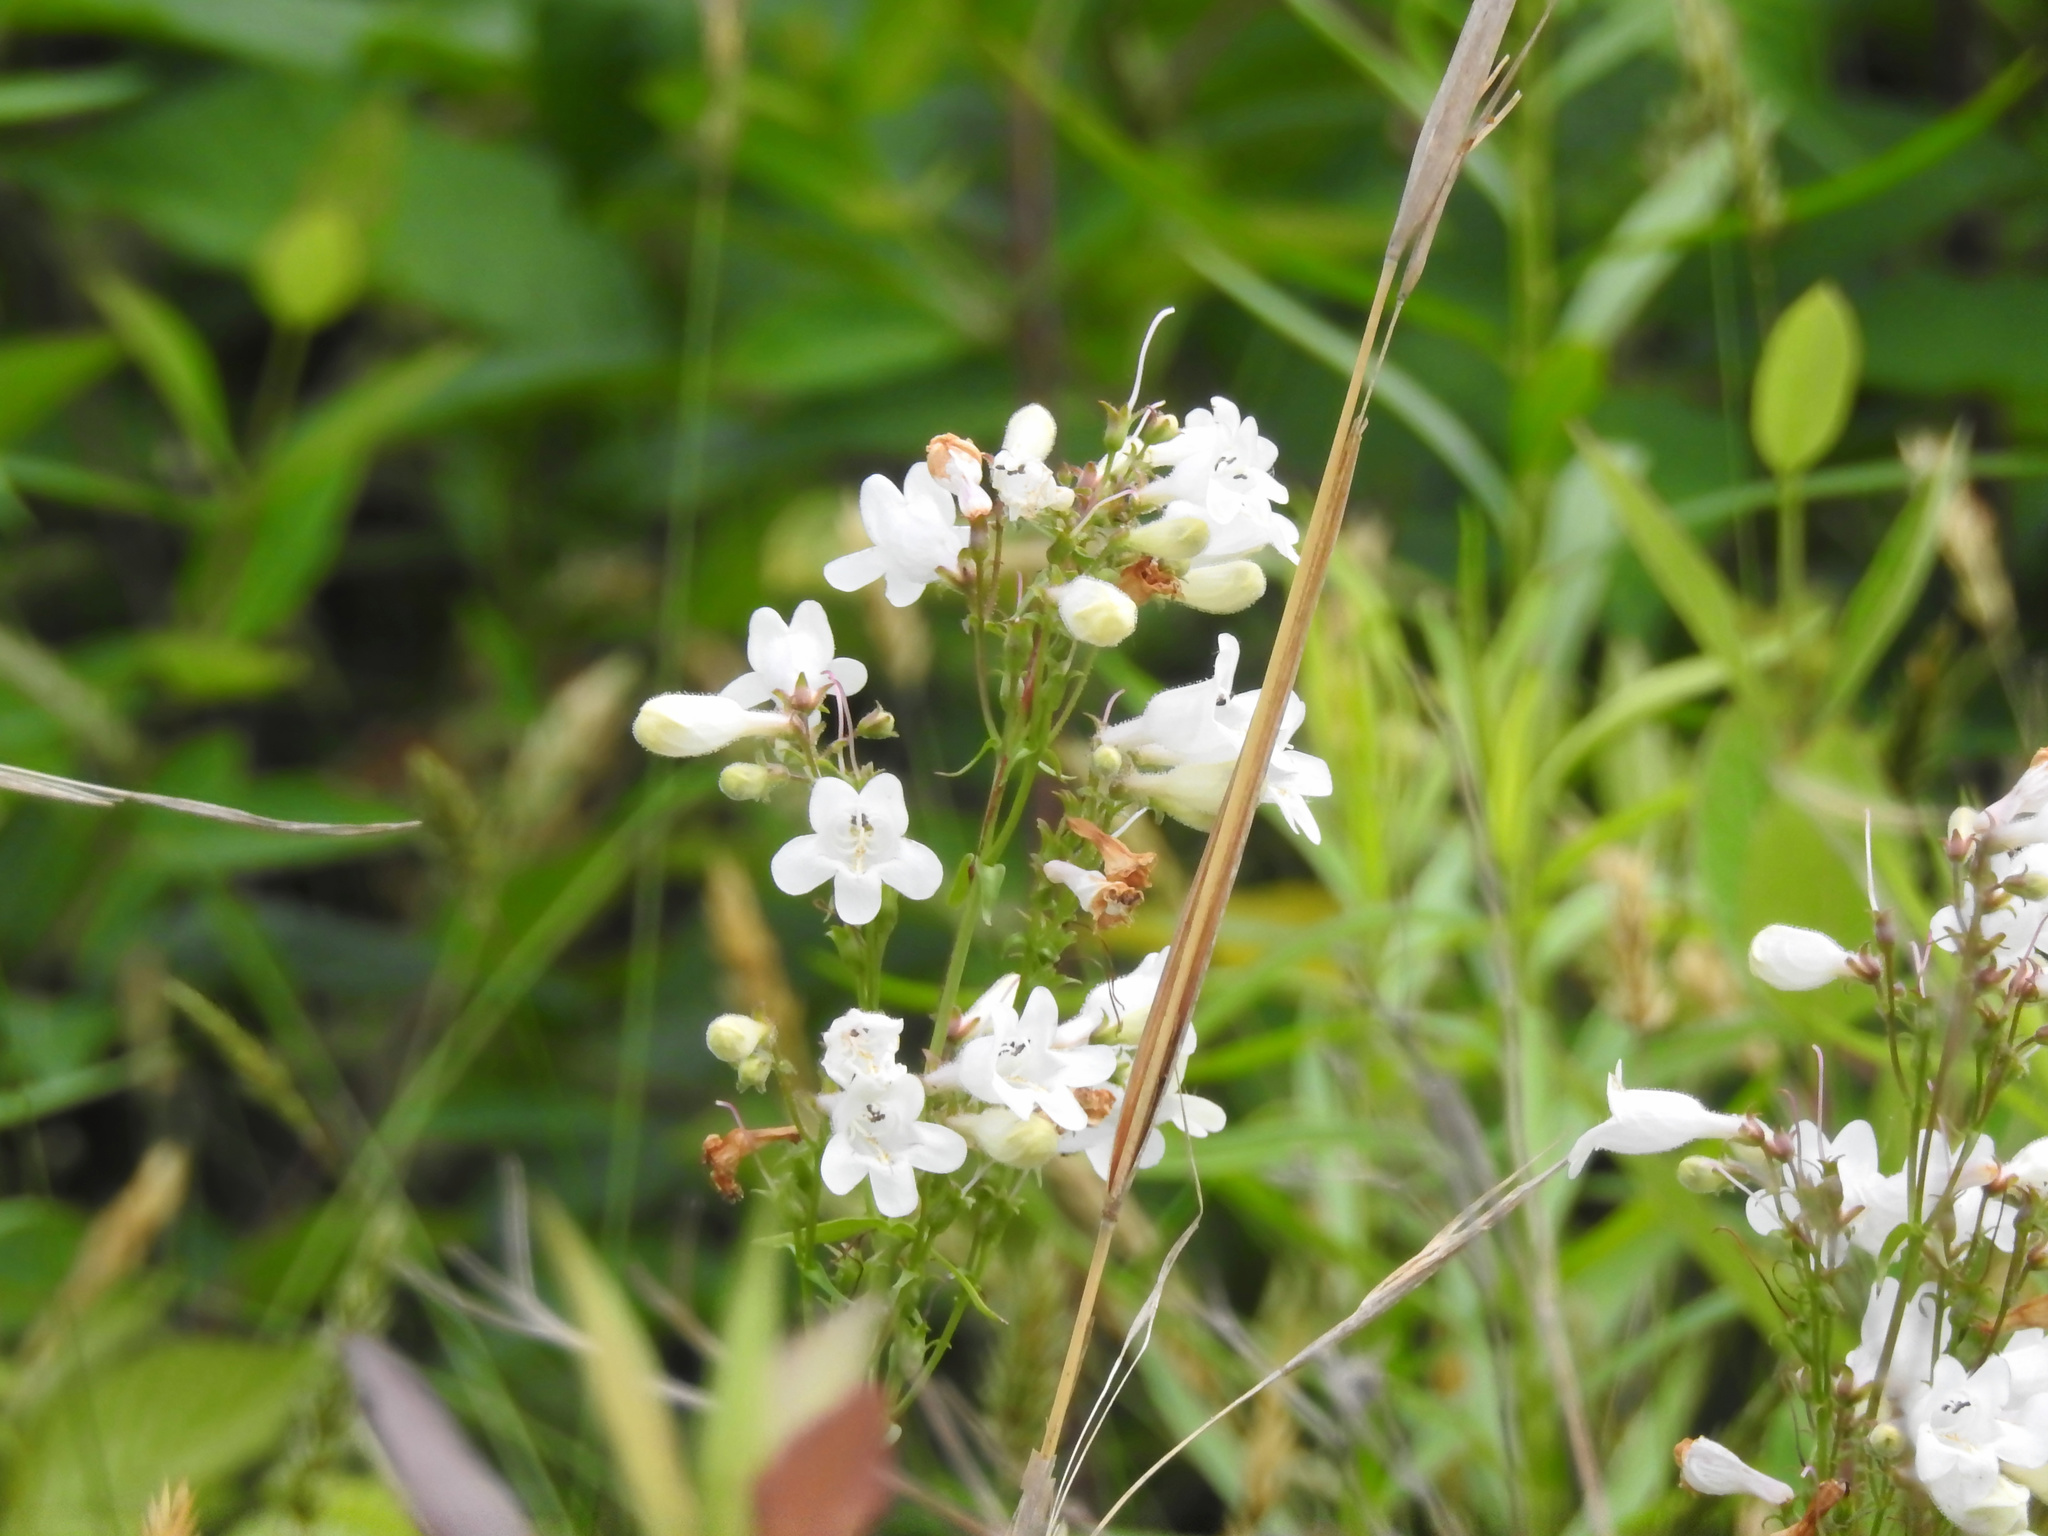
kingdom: Plantae
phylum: Tracheophyta
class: Magnoliopsida
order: Lamiales
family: Plantaginaceae
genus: Penstemon
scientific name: Penstemon digitalis
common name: Foxglove beardtongue
